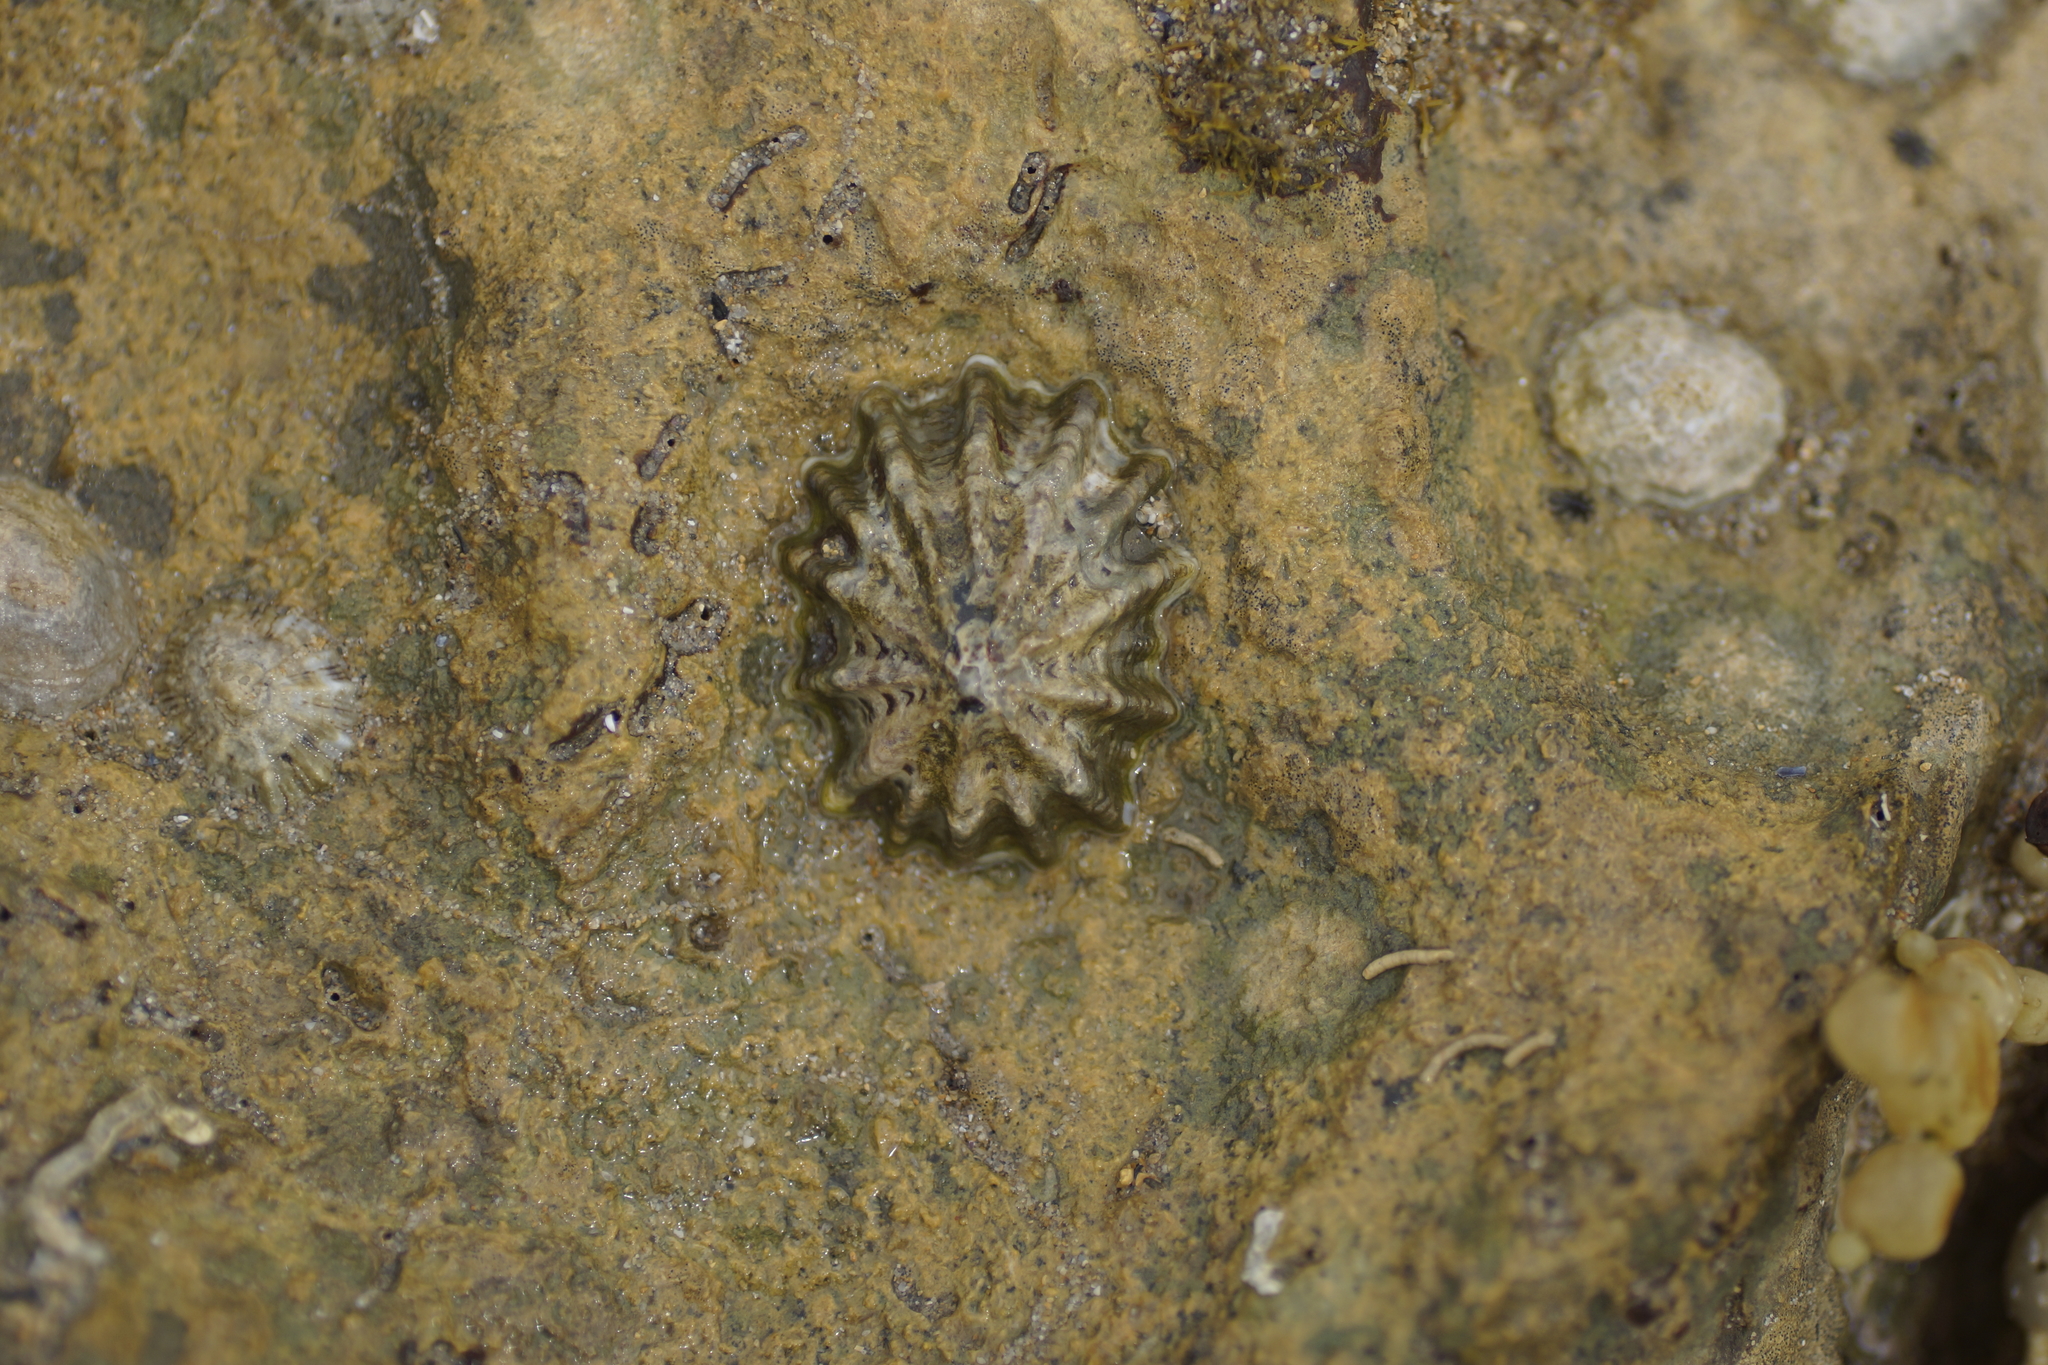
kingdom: Animalia
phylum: Mollusca
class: Gastropoda
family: Lottiidae
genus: Patelloida
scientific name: Patelloida alticostata
